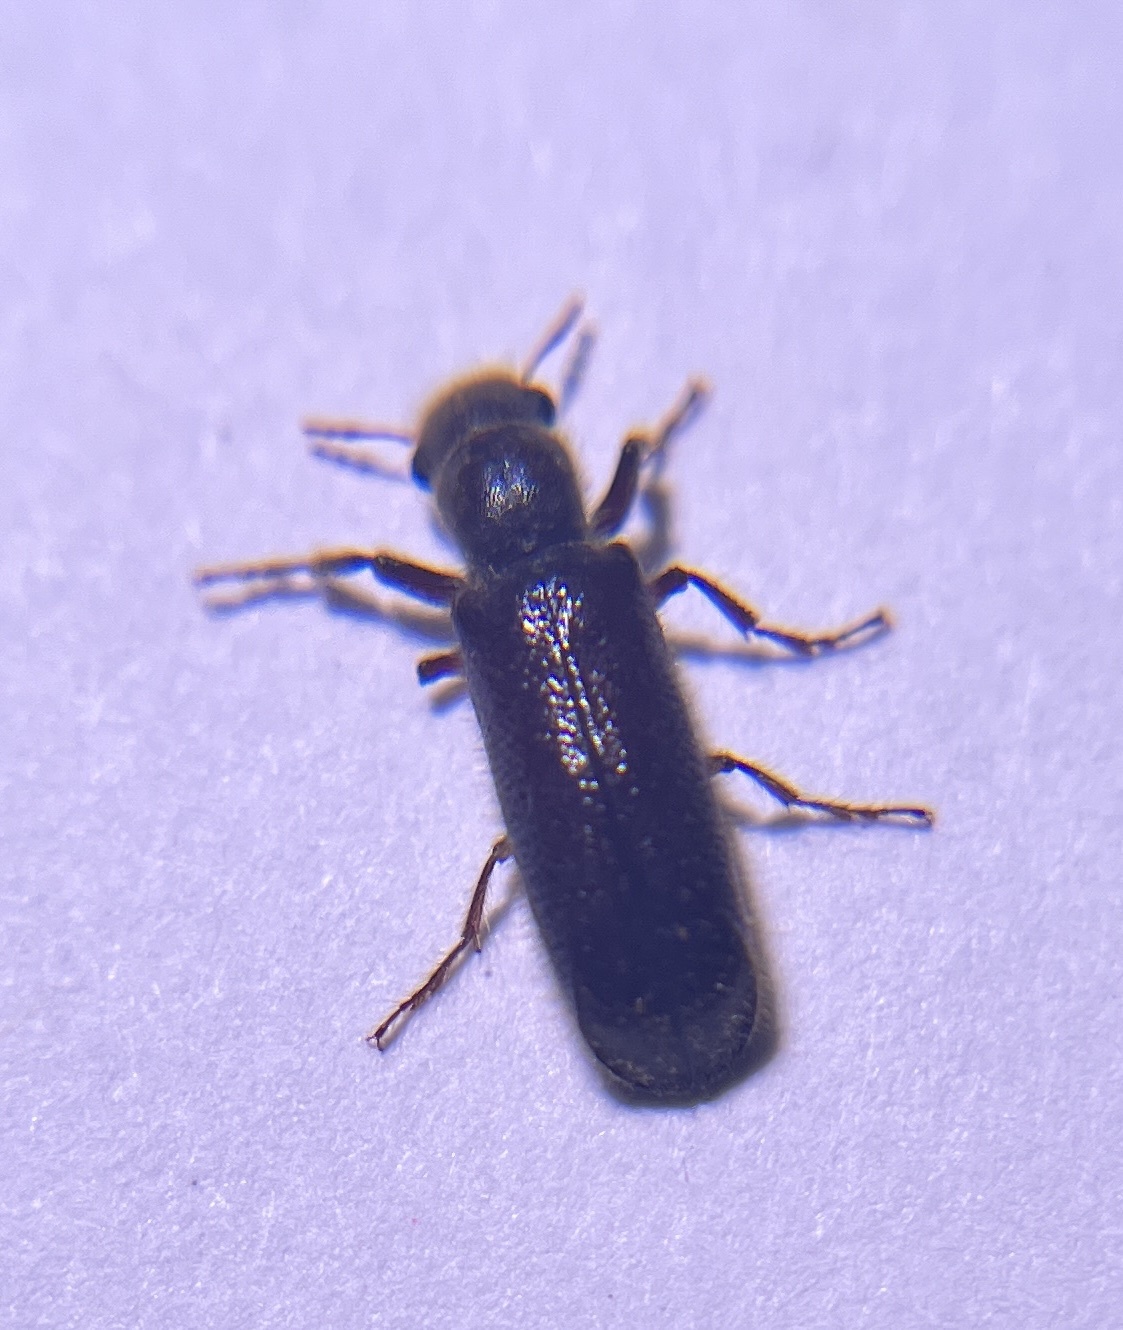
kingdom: Animalia
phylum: Arthropoda
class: Insecta
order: Coleoptera
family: Bostrichidae
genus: Melalgus
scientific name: Melalgus plicatus
